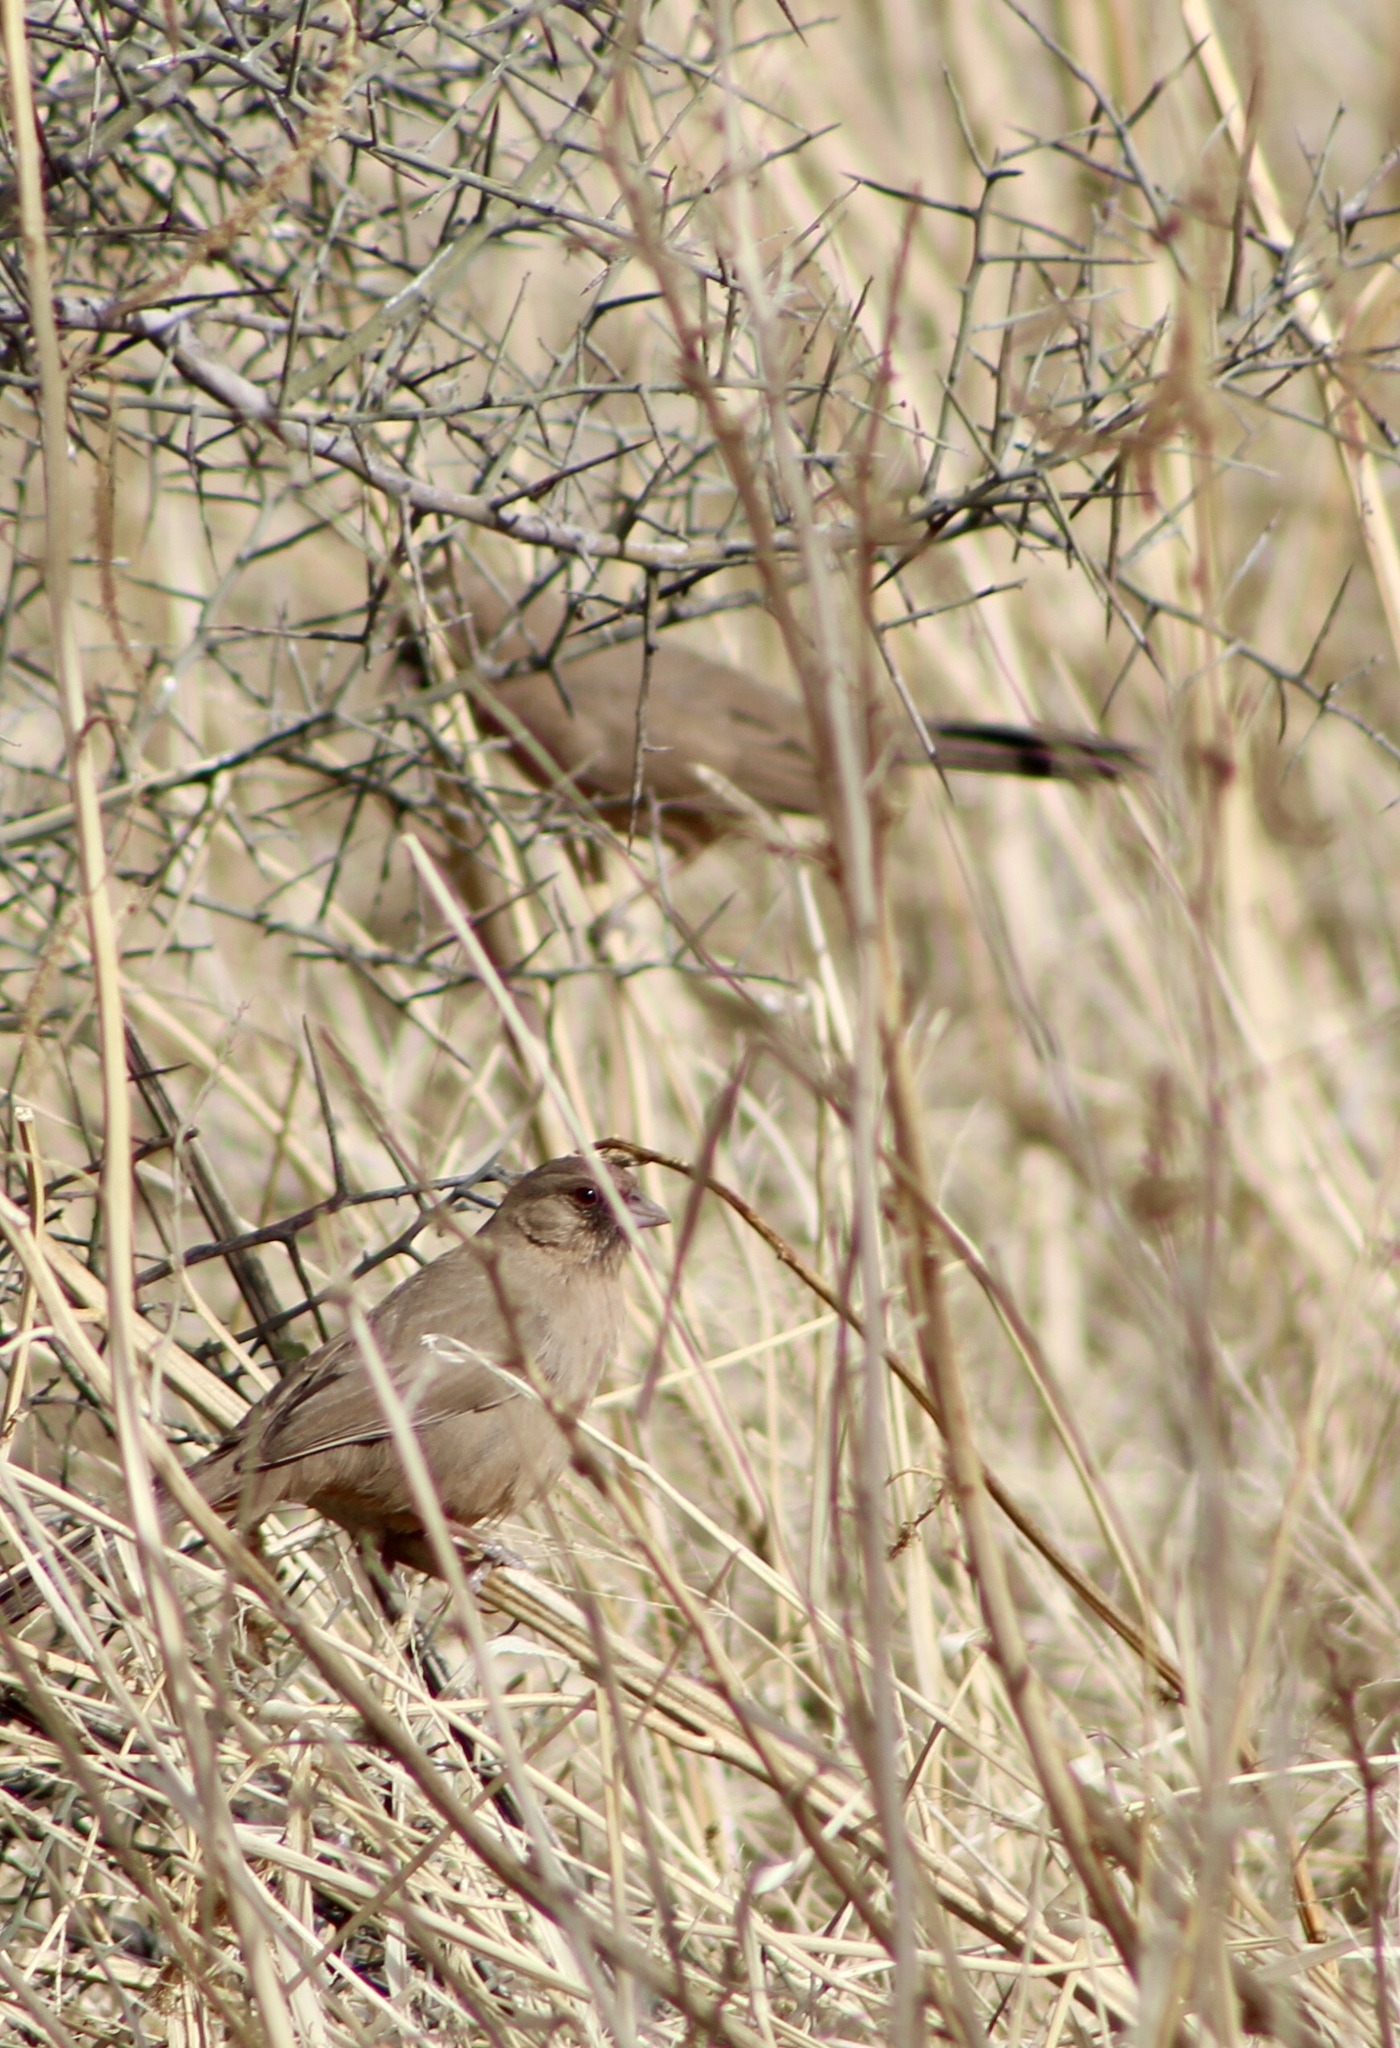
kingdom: Animalia
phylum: Chordata
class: Aves
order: Passeriformes
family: Passerellidae
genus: Melozone
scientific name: Melozone aberti
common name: Abert's towhee
